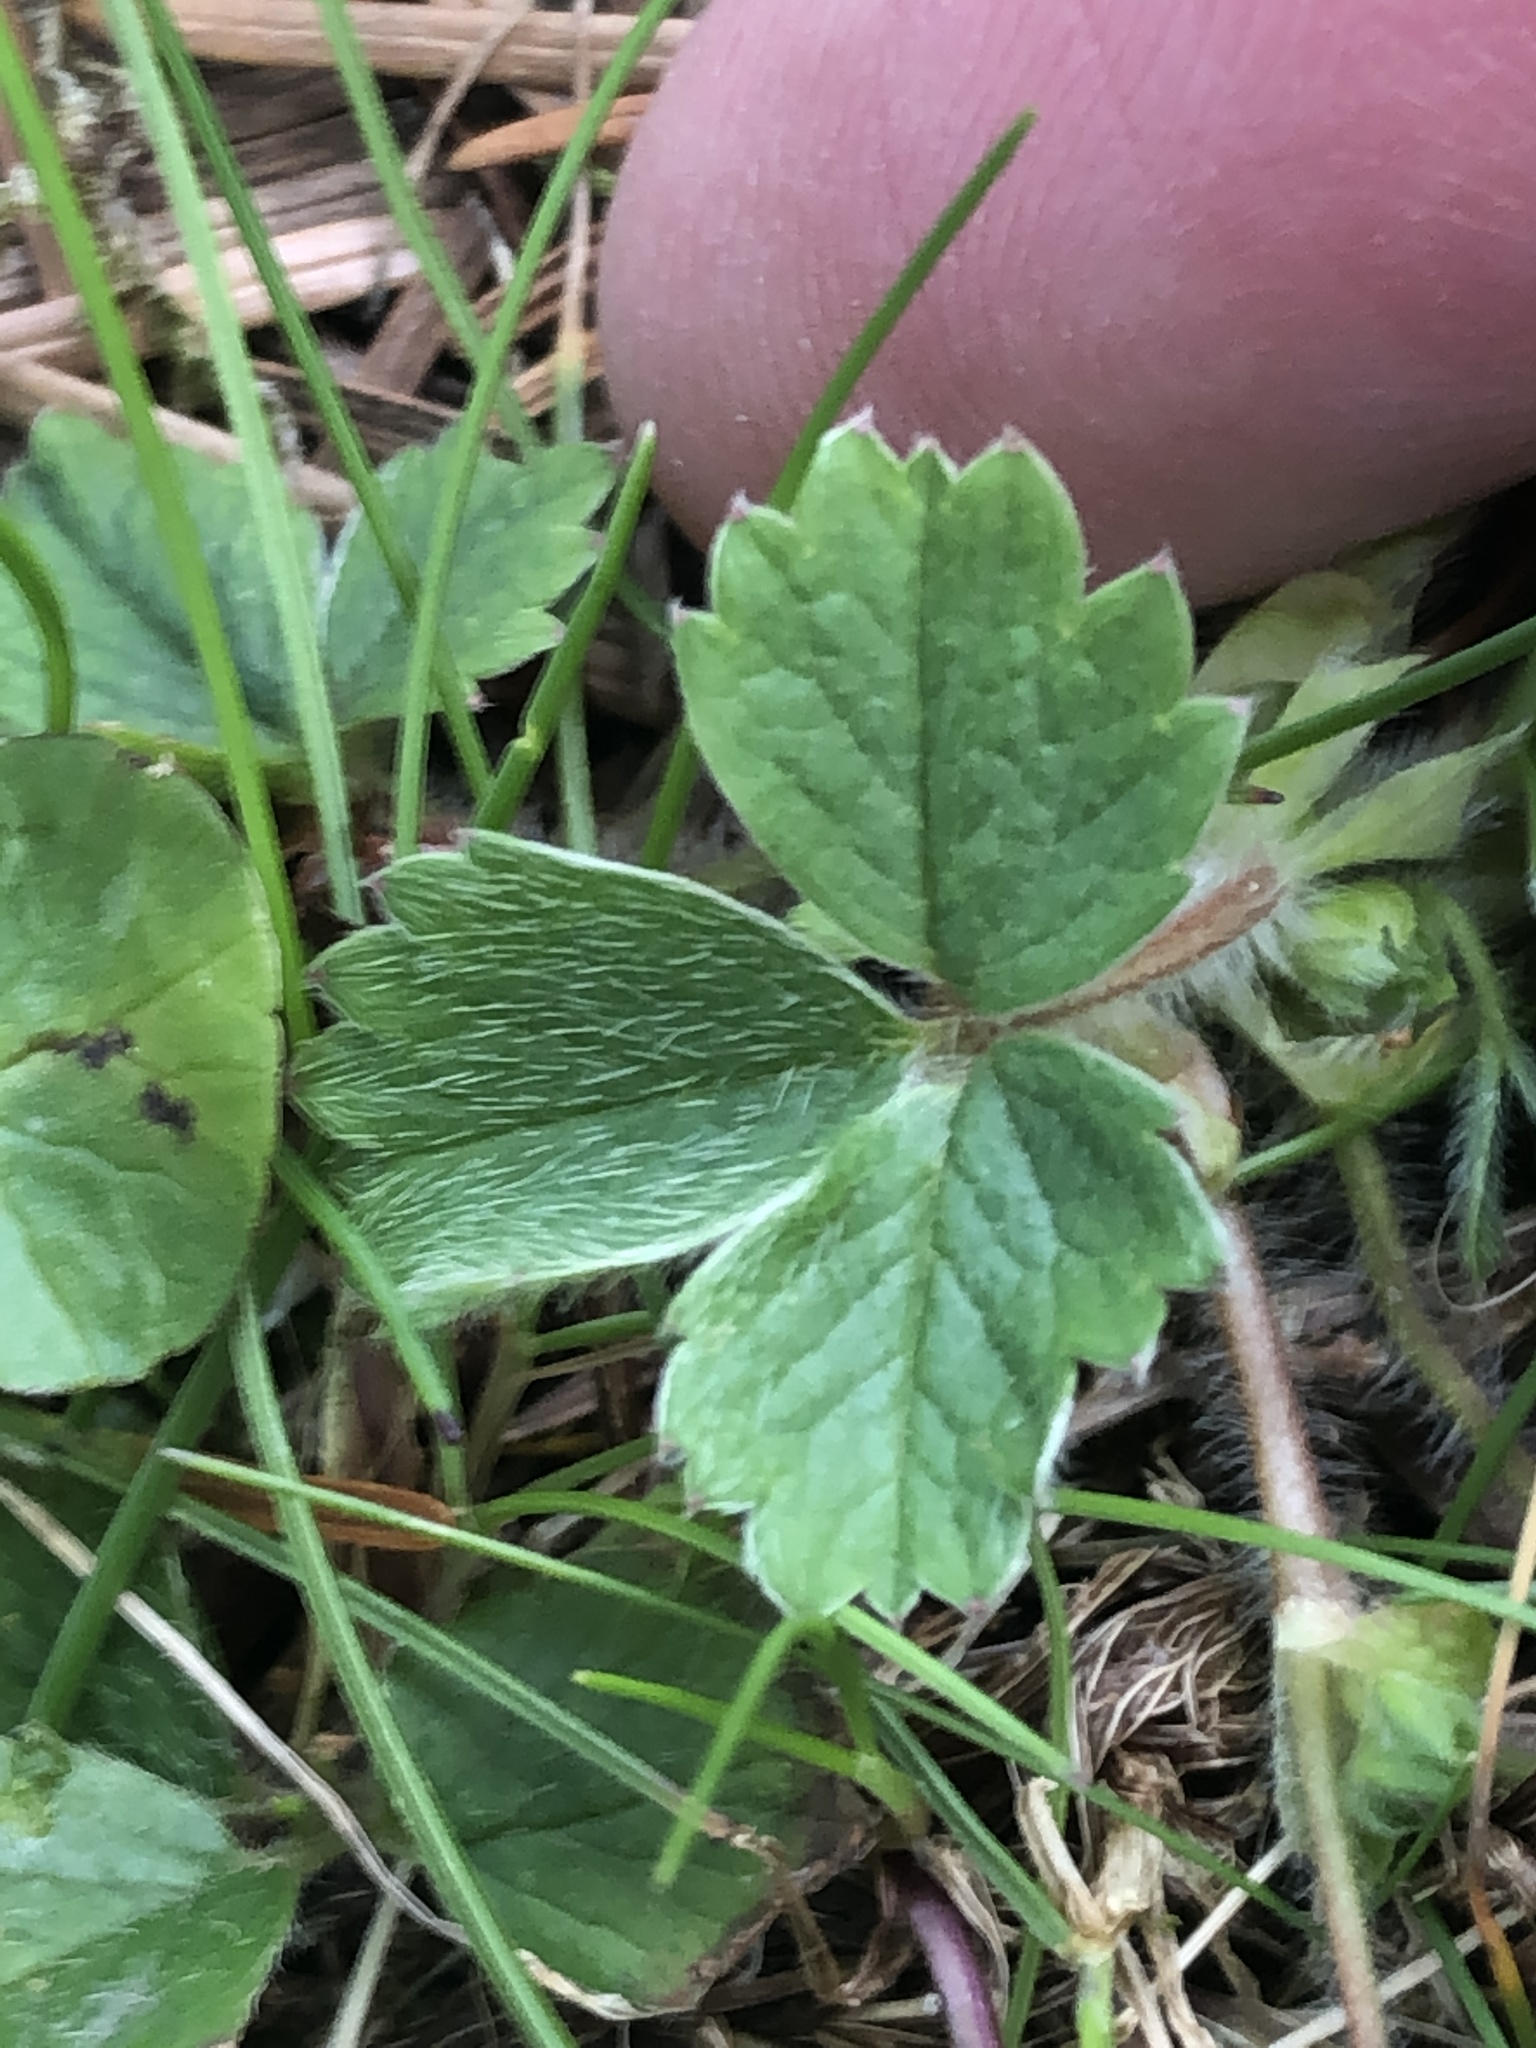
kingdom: Plantae
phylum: Tracheophyta
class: Magnoliopsida
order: Rosales
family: Rosaceae
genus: Potentilla
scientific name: Potentilla sterilis
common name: Barren strawberry
